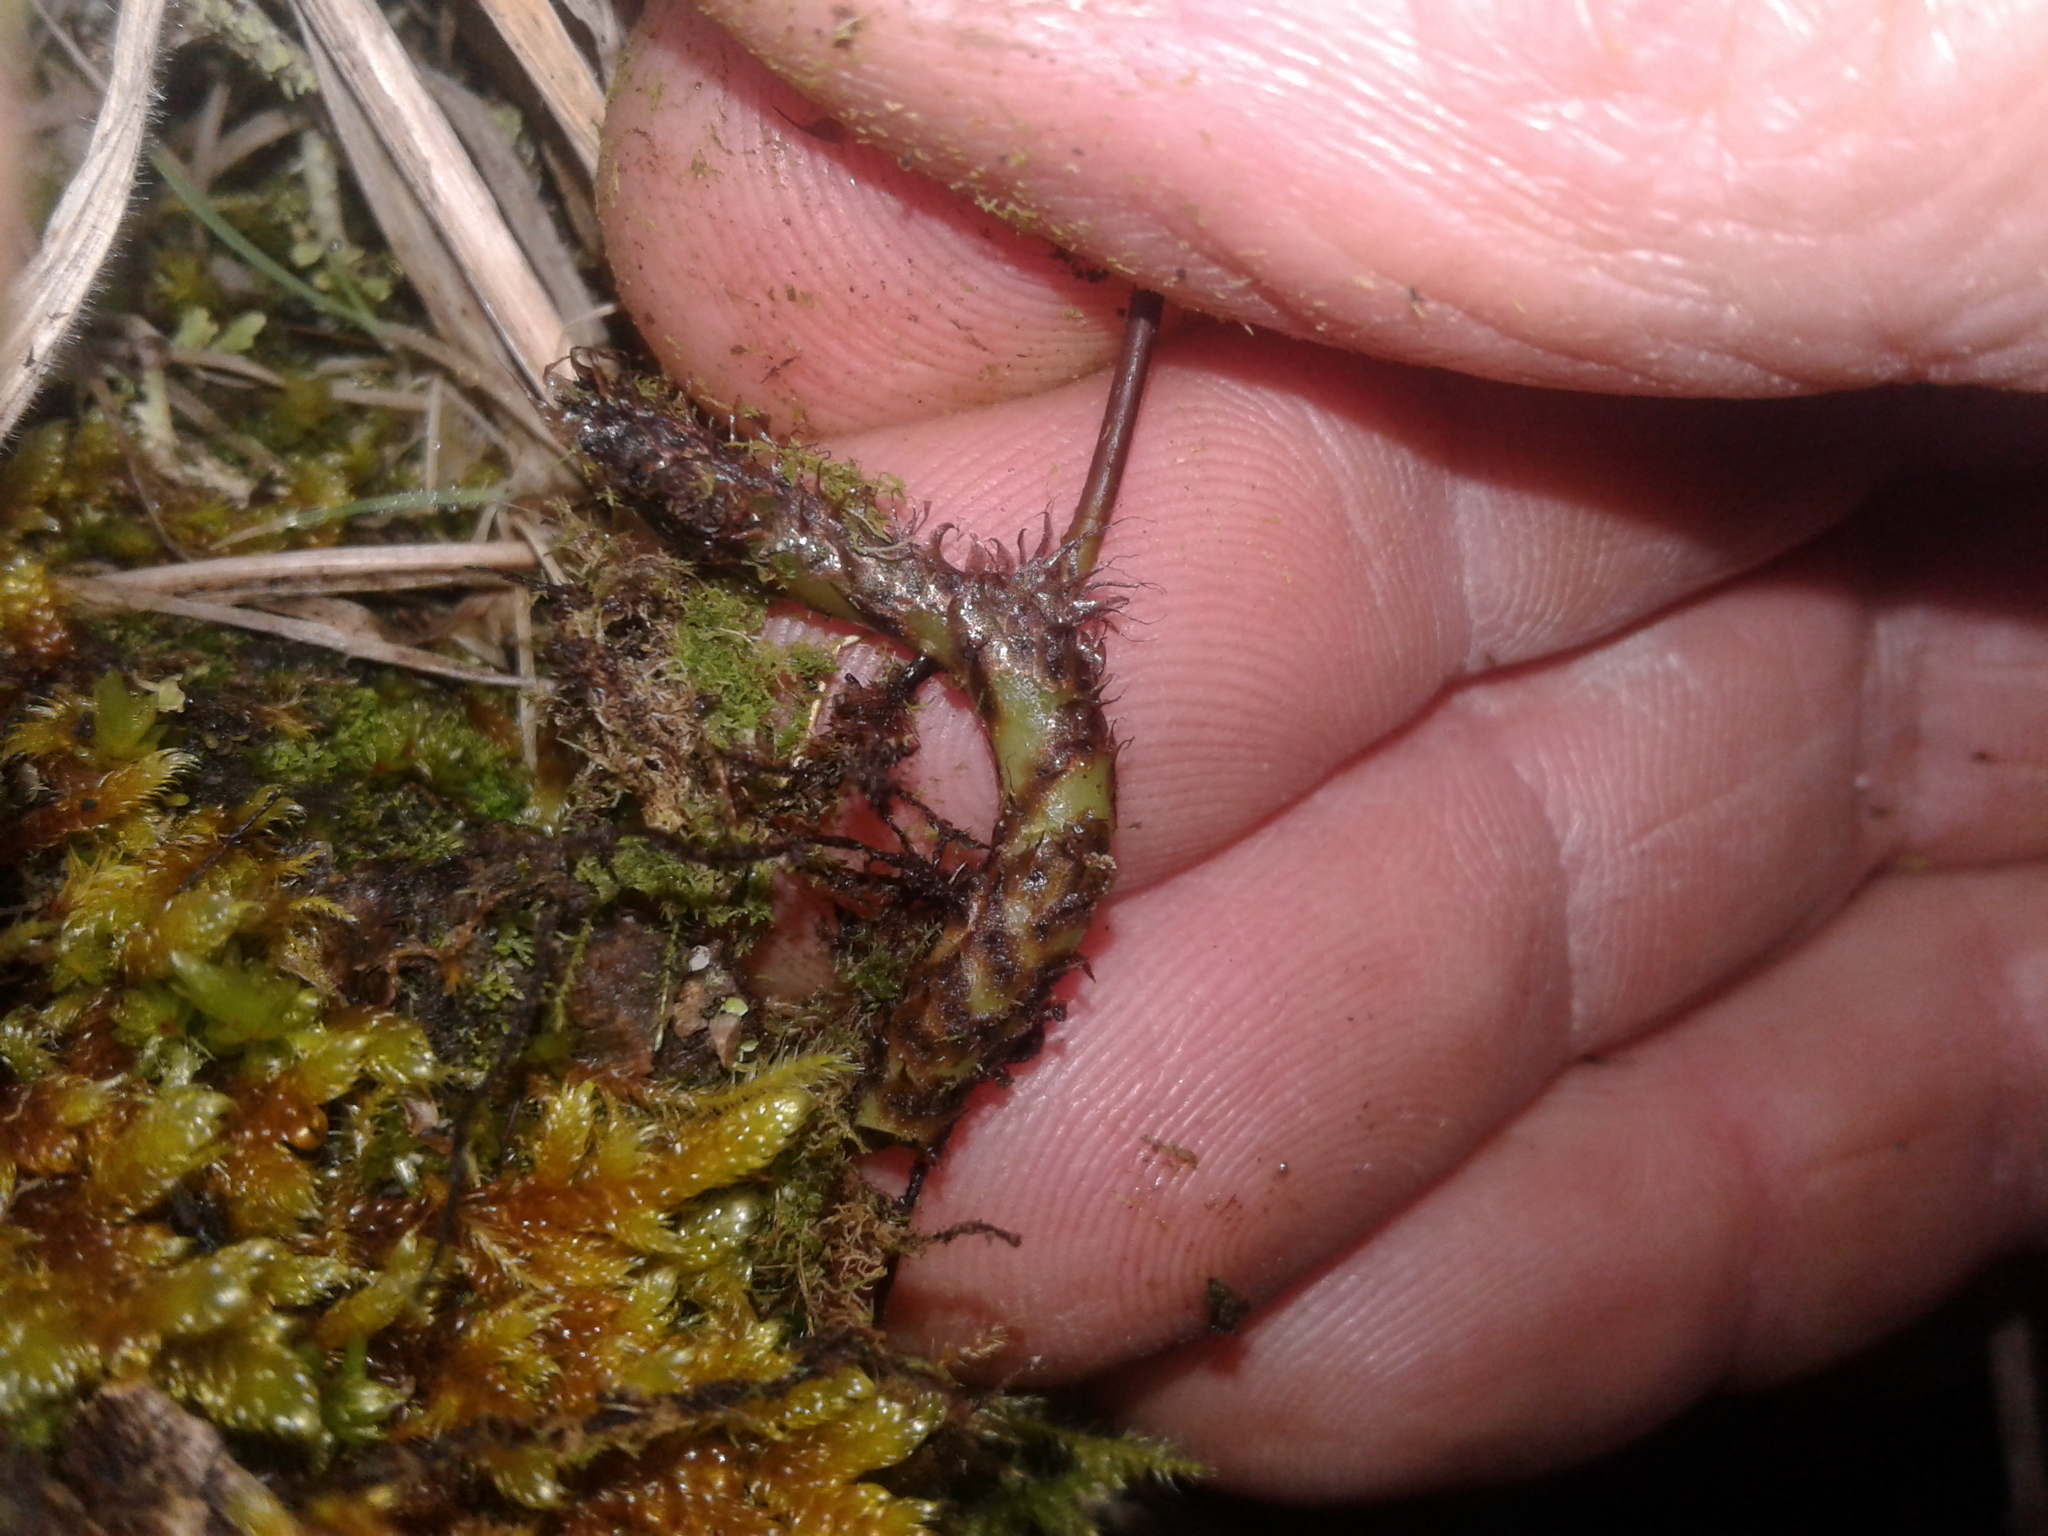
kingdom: Plantae
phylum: Tracheophyta
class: Polypodiopsida
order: Polypodiales
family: Polypodiaceae
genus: Lecanopteris
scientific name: Lecanopteris pustulata
